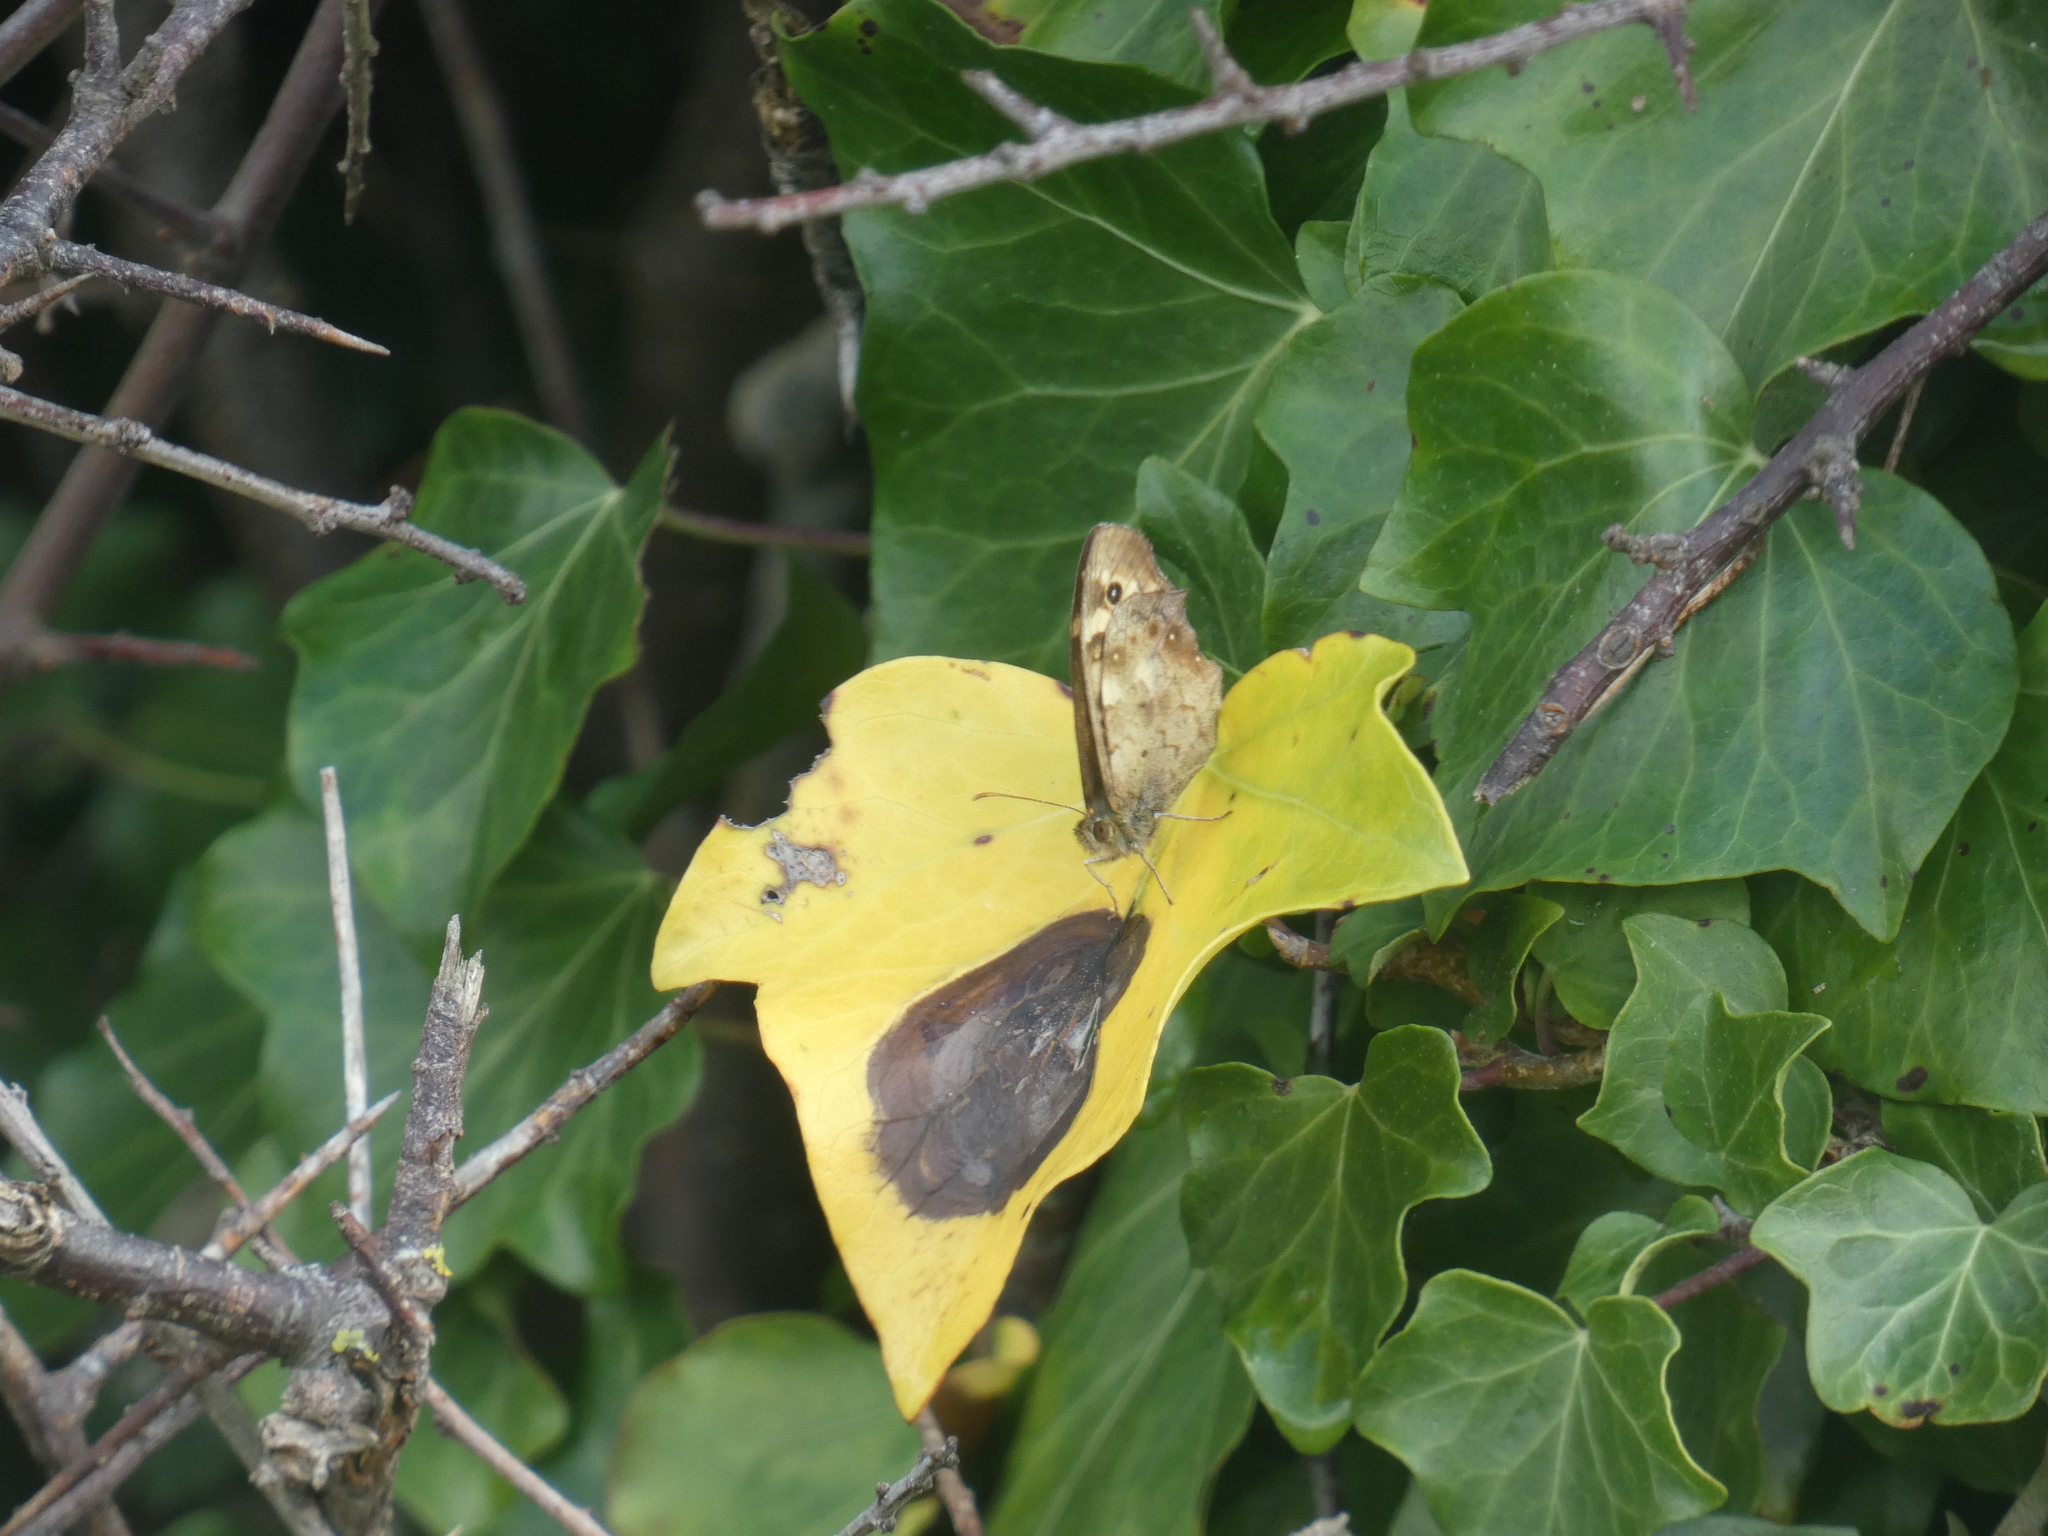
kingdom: Animalia
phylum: Arthropoda
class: Insecta
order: Lepidoptera
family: Nymphalidae
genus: Pararge
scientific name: Pararge aegeria
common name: Speckled wood
